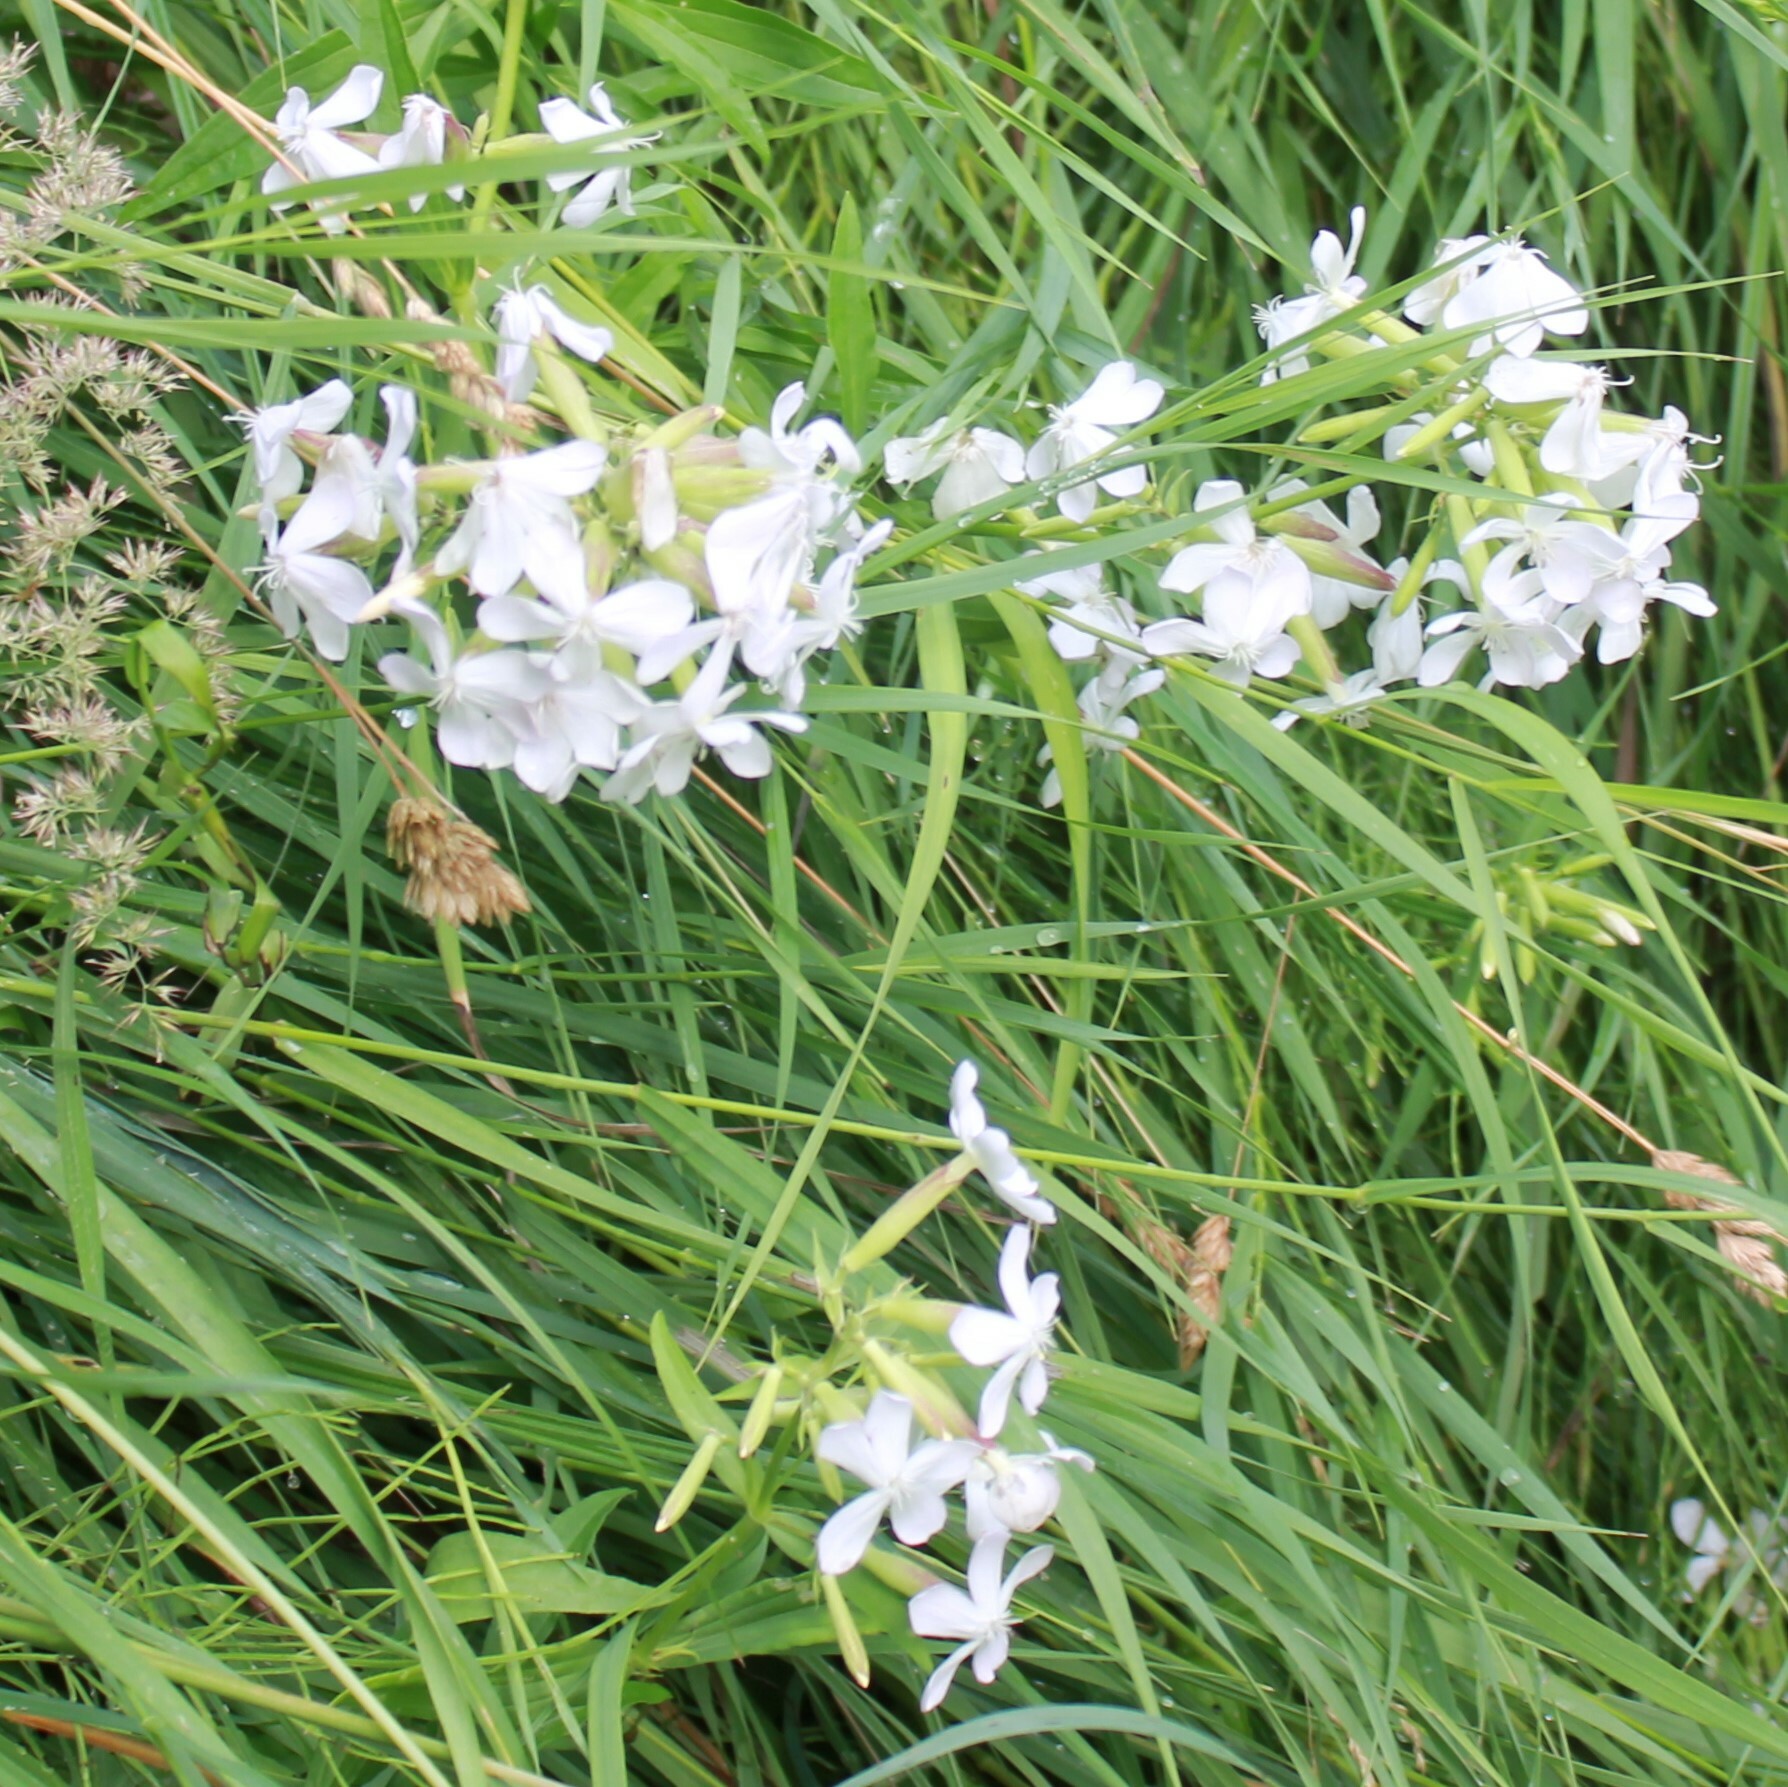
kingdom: Plantae
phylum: Tracheophyta
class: Magnoliopsida
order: Caryophyllales
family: Caryophyllaceae
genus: Saponaria
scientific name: Saponaria officinalis
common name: Soapwort
